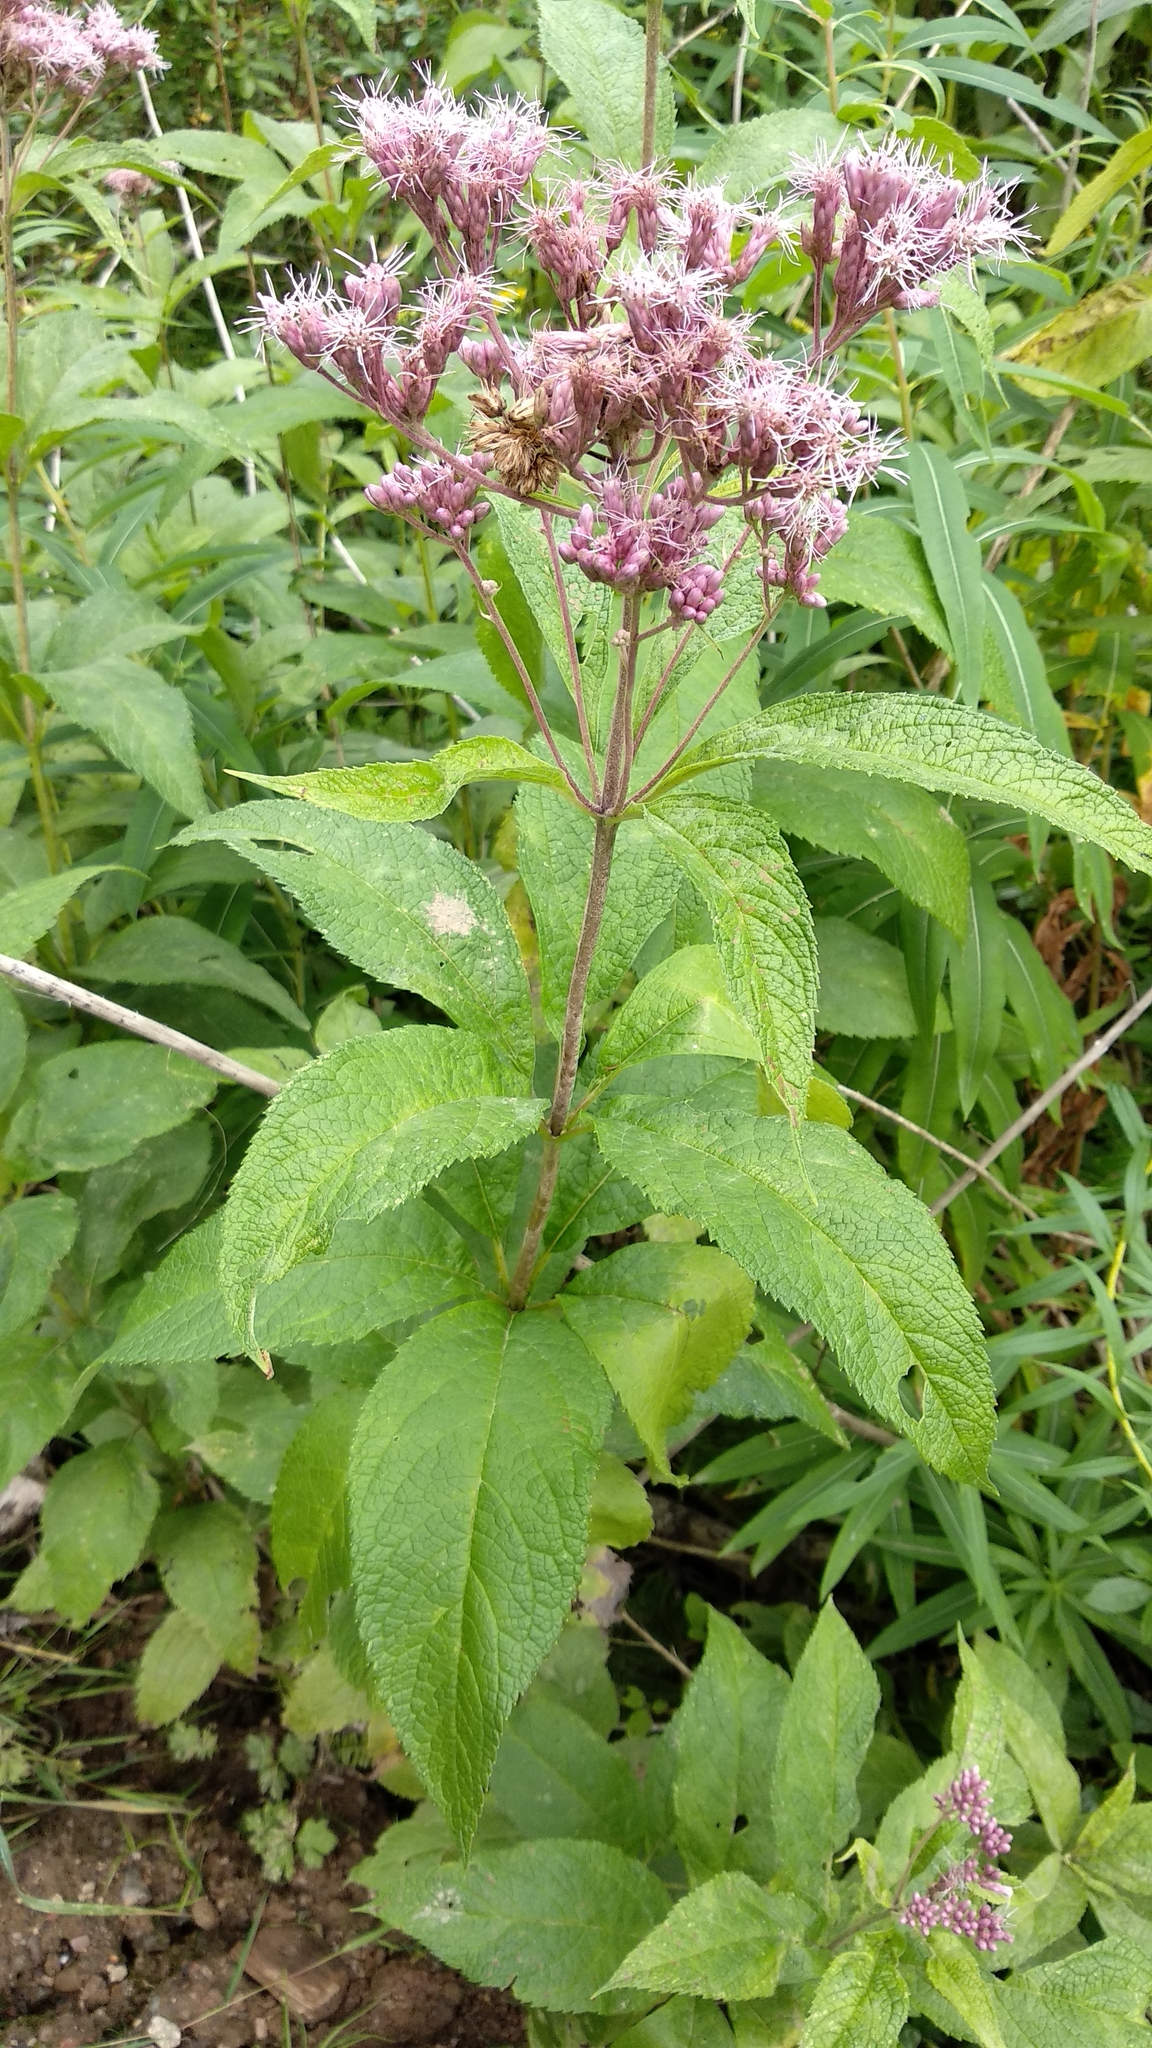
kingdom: Plantae
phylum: Tracheophyta
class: Magnoliopsida
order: Asterales
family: Asteraceae
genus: Eutrochium
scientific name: Eutrochium maculatum
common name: Spotted joe pye weed
